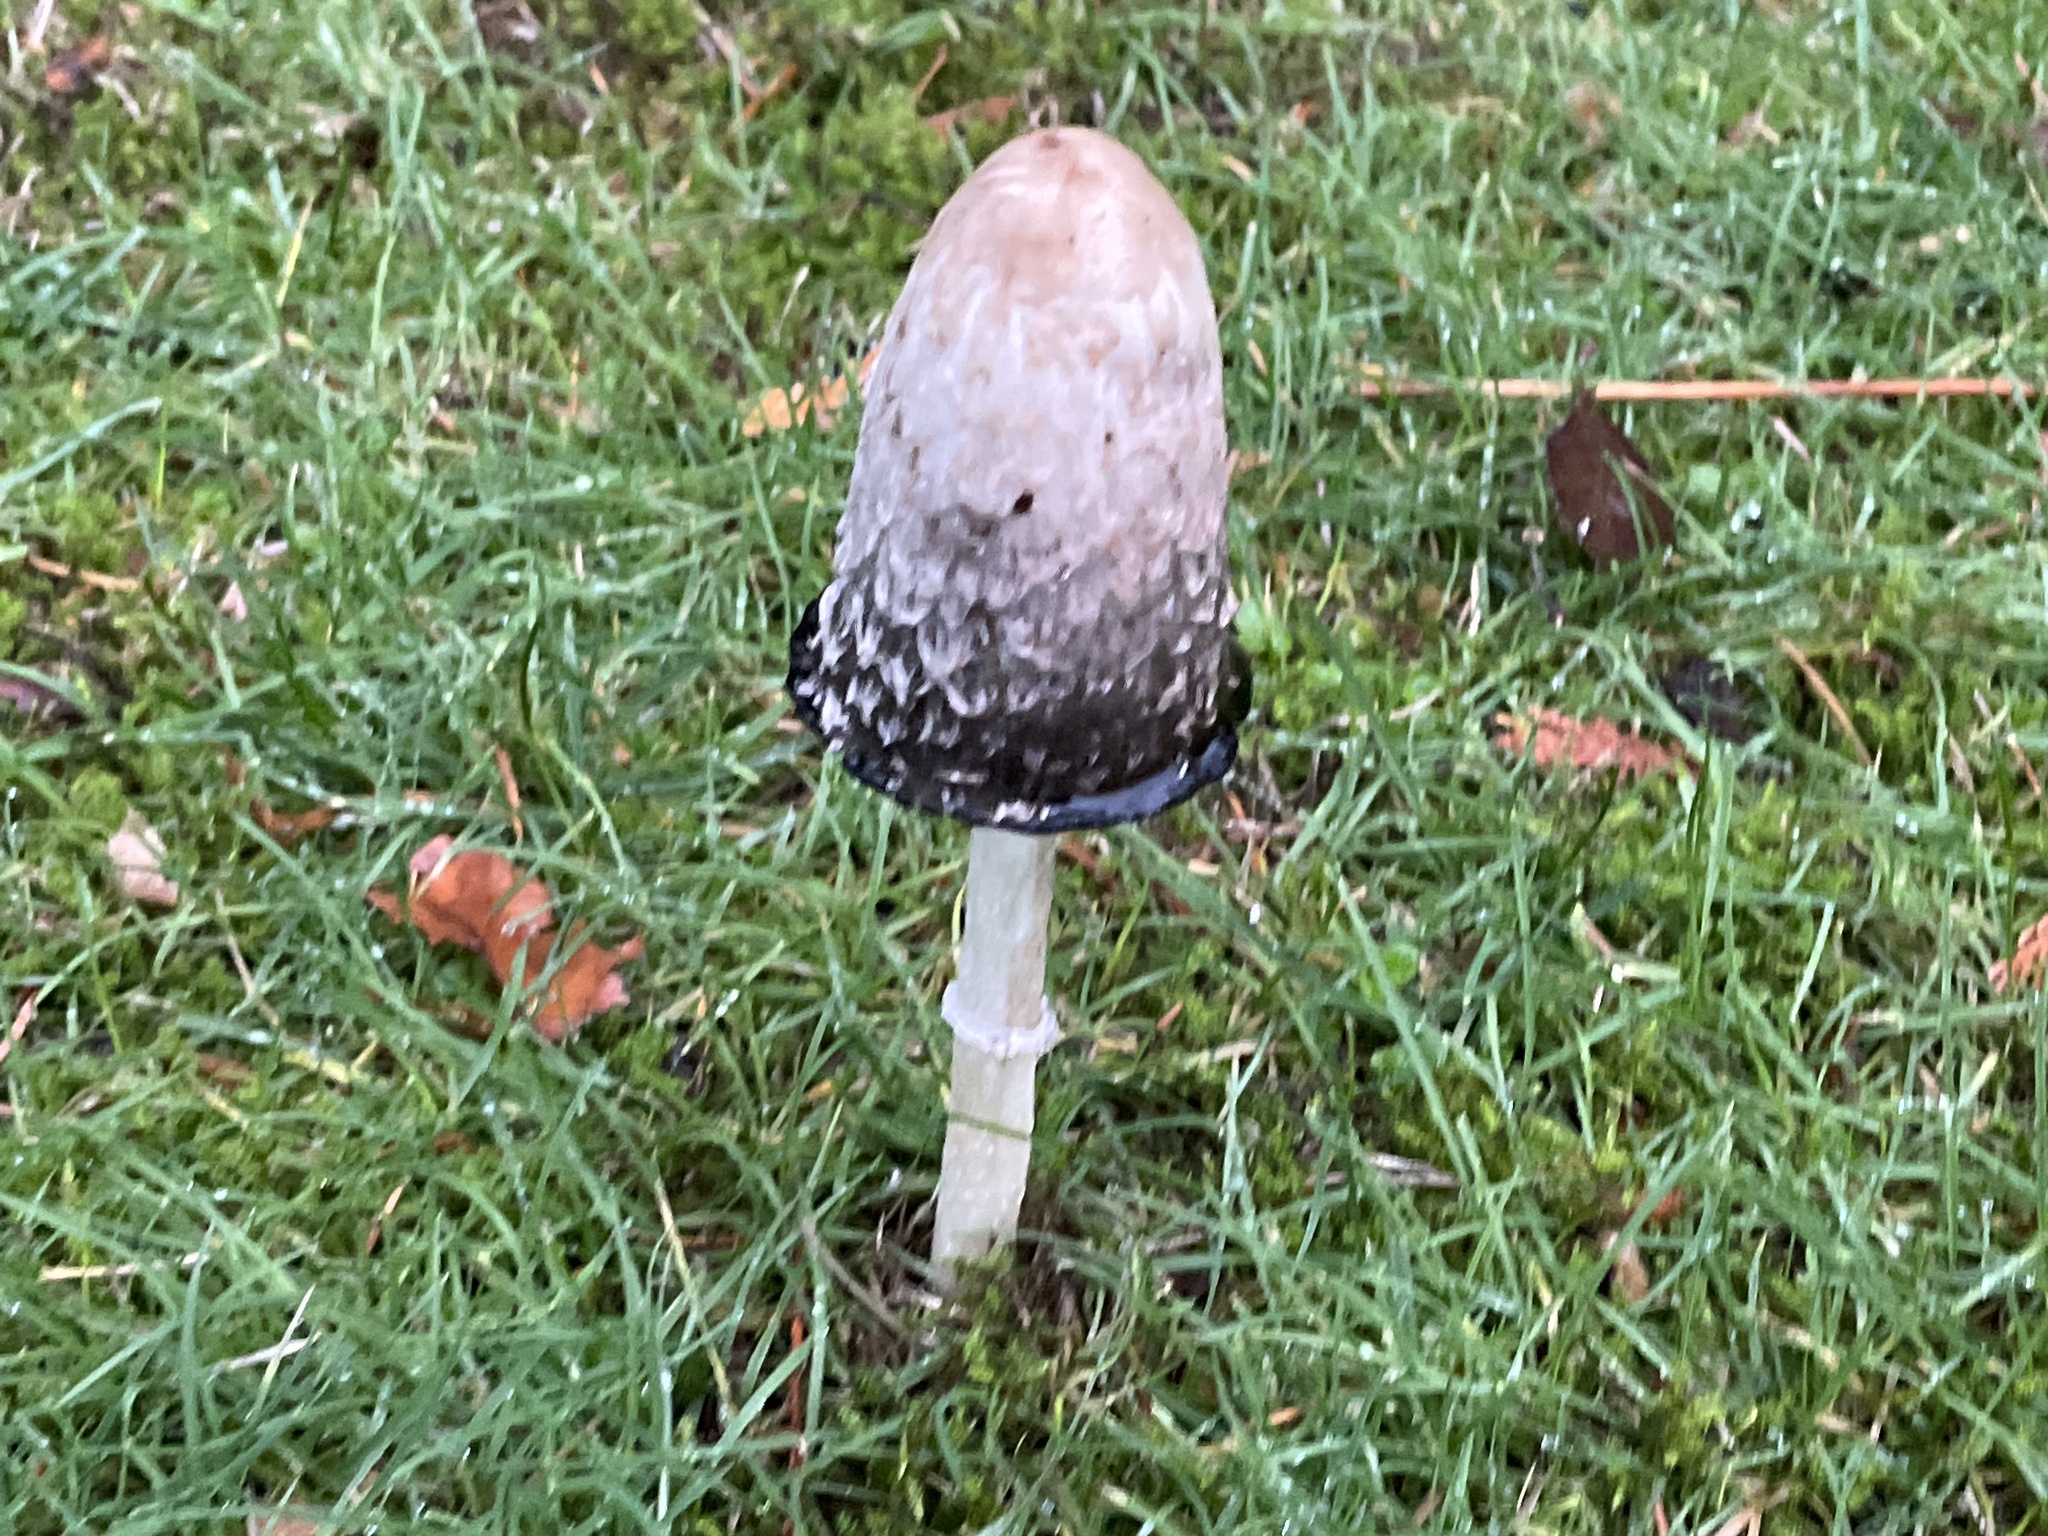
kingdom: Fungi
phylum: Basidiomycota
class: Agaricomycetes
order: Agaricales
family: Agaricaceae
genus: Coprinus
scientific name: Coprinus comatus
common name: Lawyer's wig
